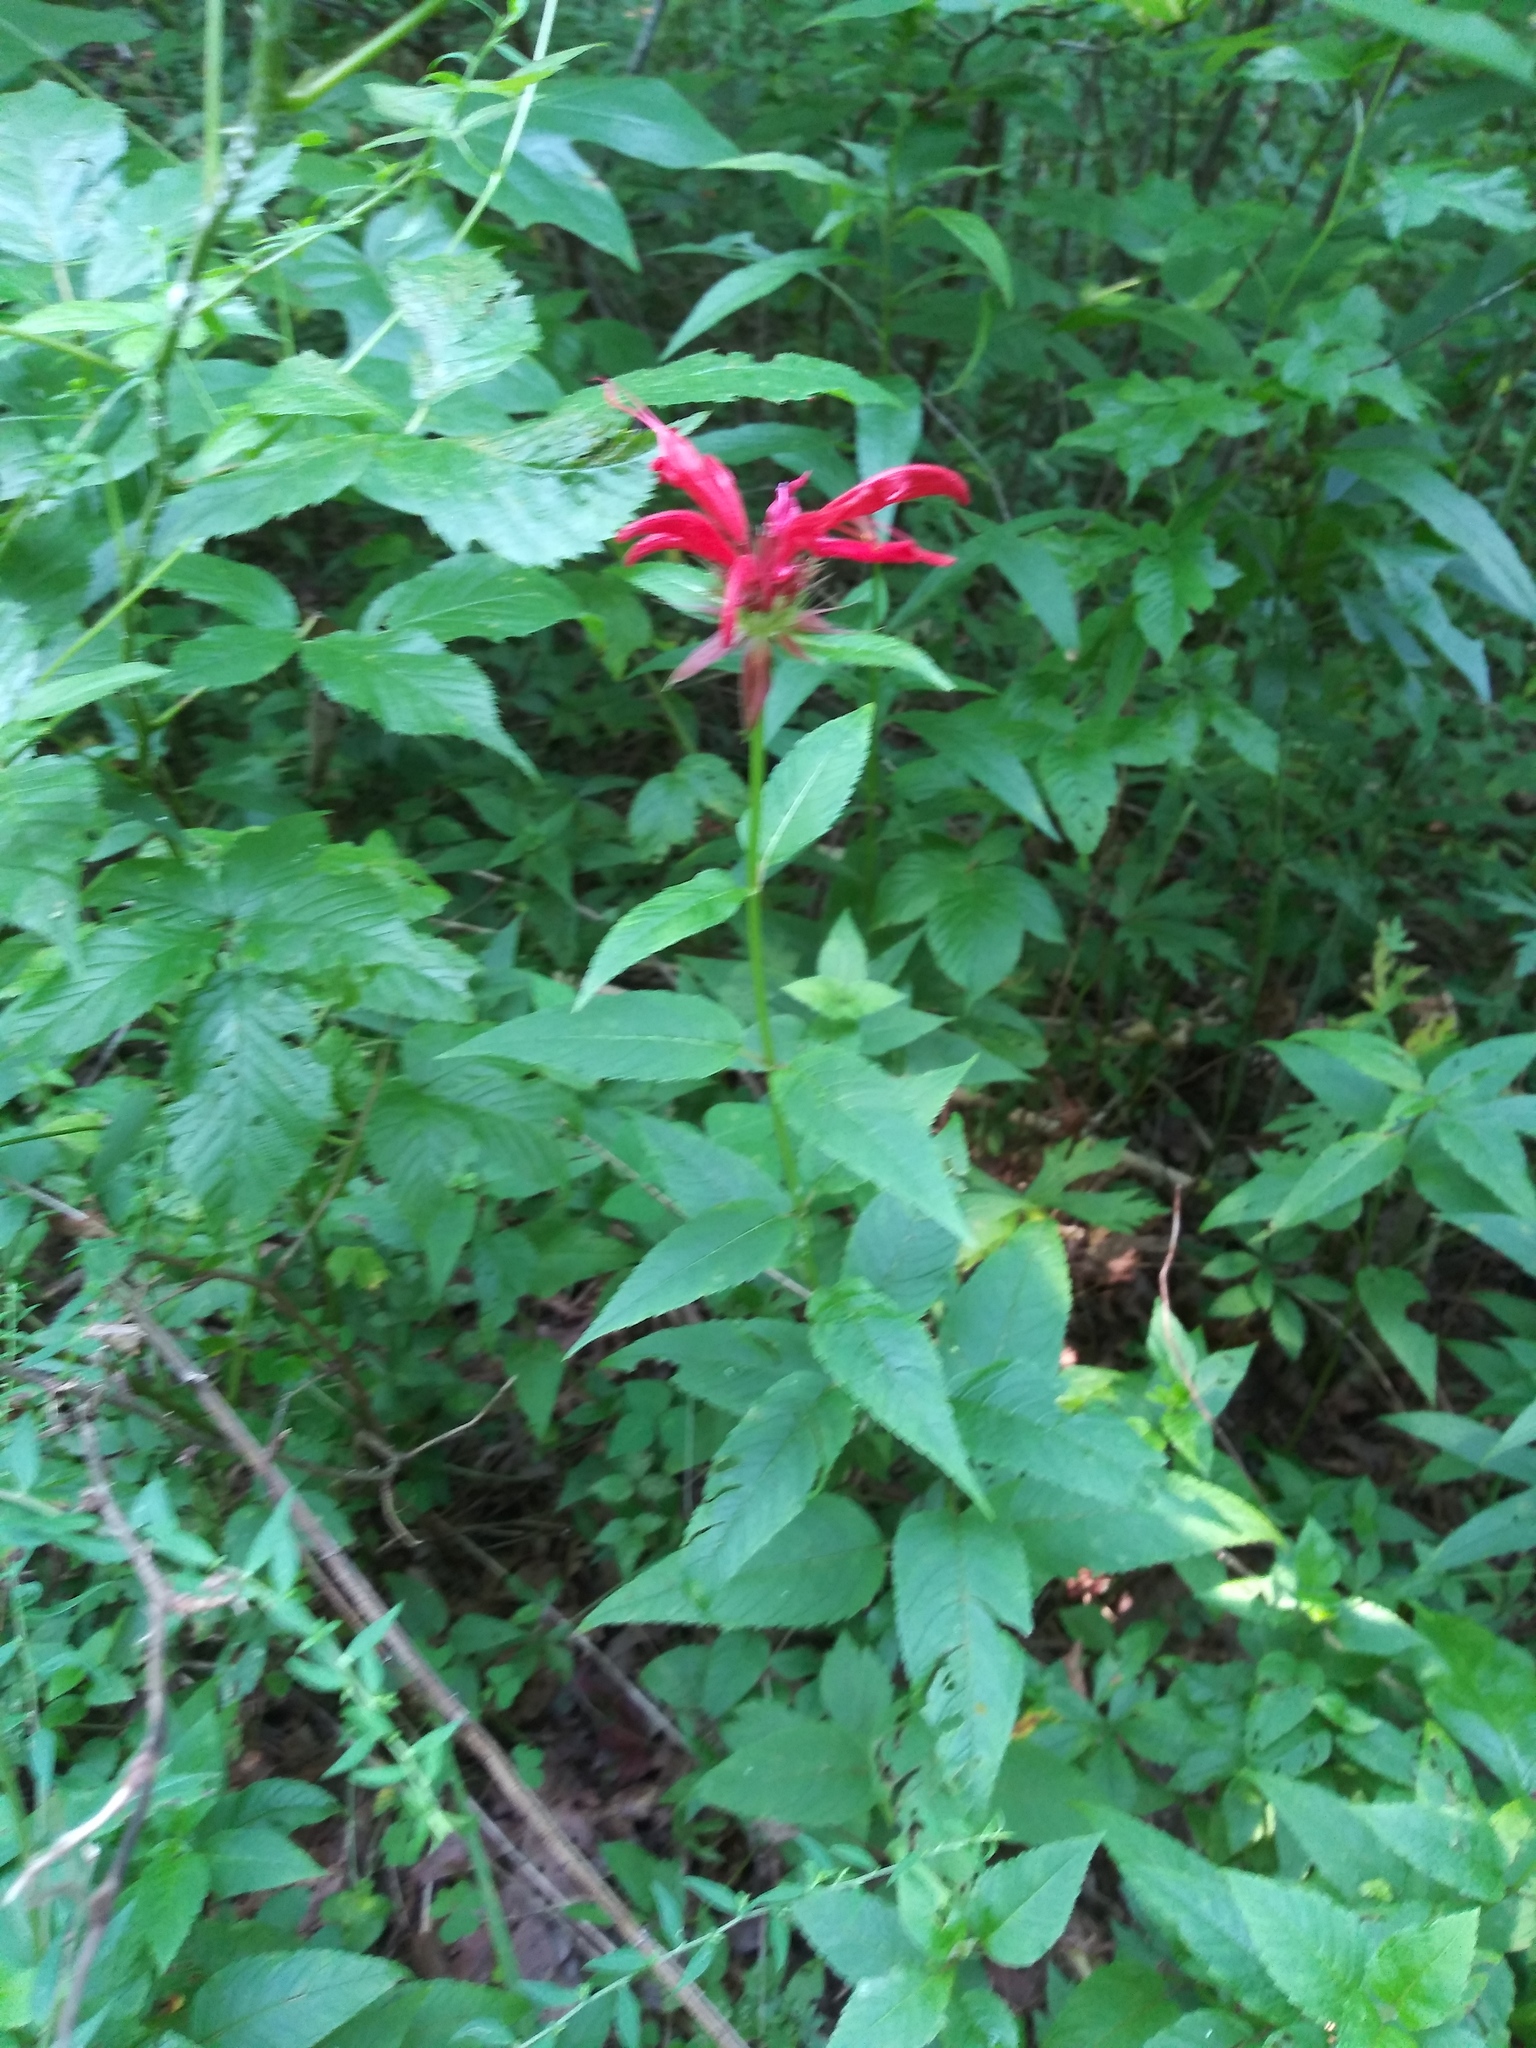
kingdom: Plantae
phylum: Tracheophyta
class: Magnoliopsida
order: Lamiales
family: Lamiaceae
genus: Monarda
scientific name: Monarda didyma
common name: Beebalm
